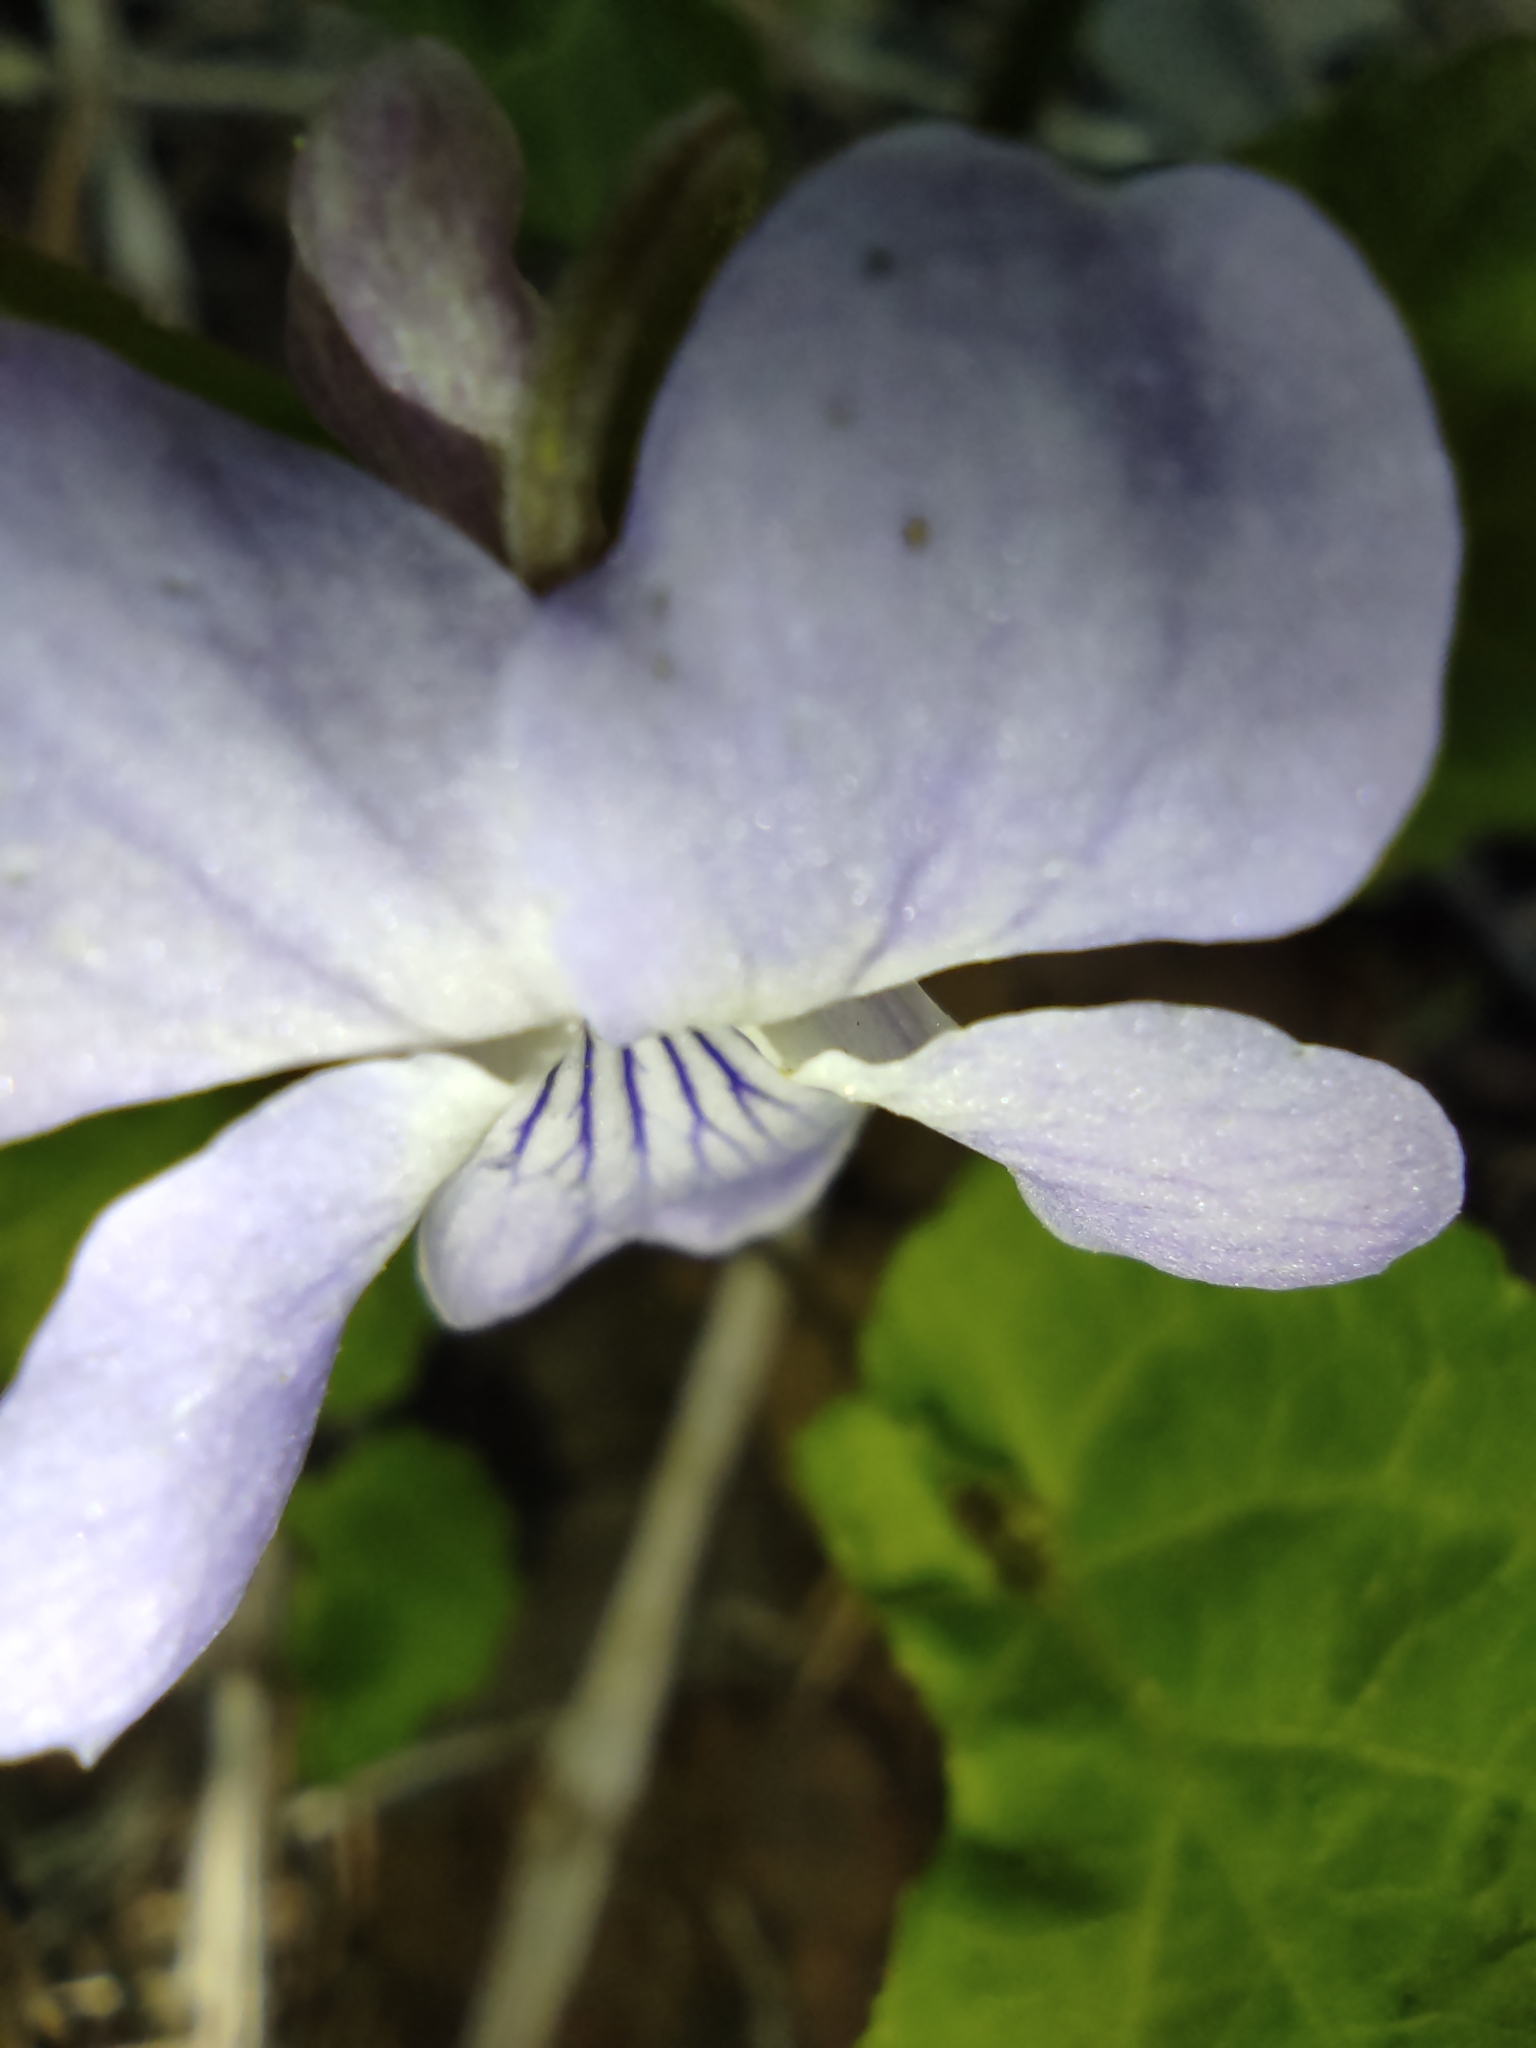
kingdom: Plantae
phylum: Tracheophyta
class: Magnoliopsida
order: Malpighiales
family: Violaceae
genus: Viola
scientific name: Viola selkirkii
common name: Selkirk's violet
